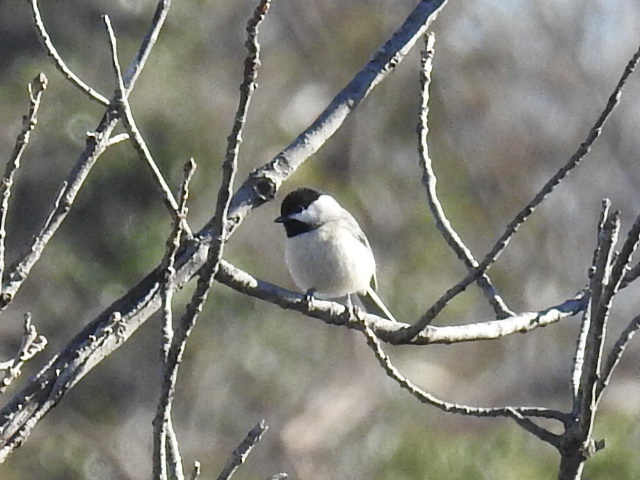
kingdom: Animalia
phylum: Chordata
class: Aves
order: Passeriformes
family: Paridae
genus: Poecile
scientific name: Poecile carolinensis
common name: Carolina chickadee
